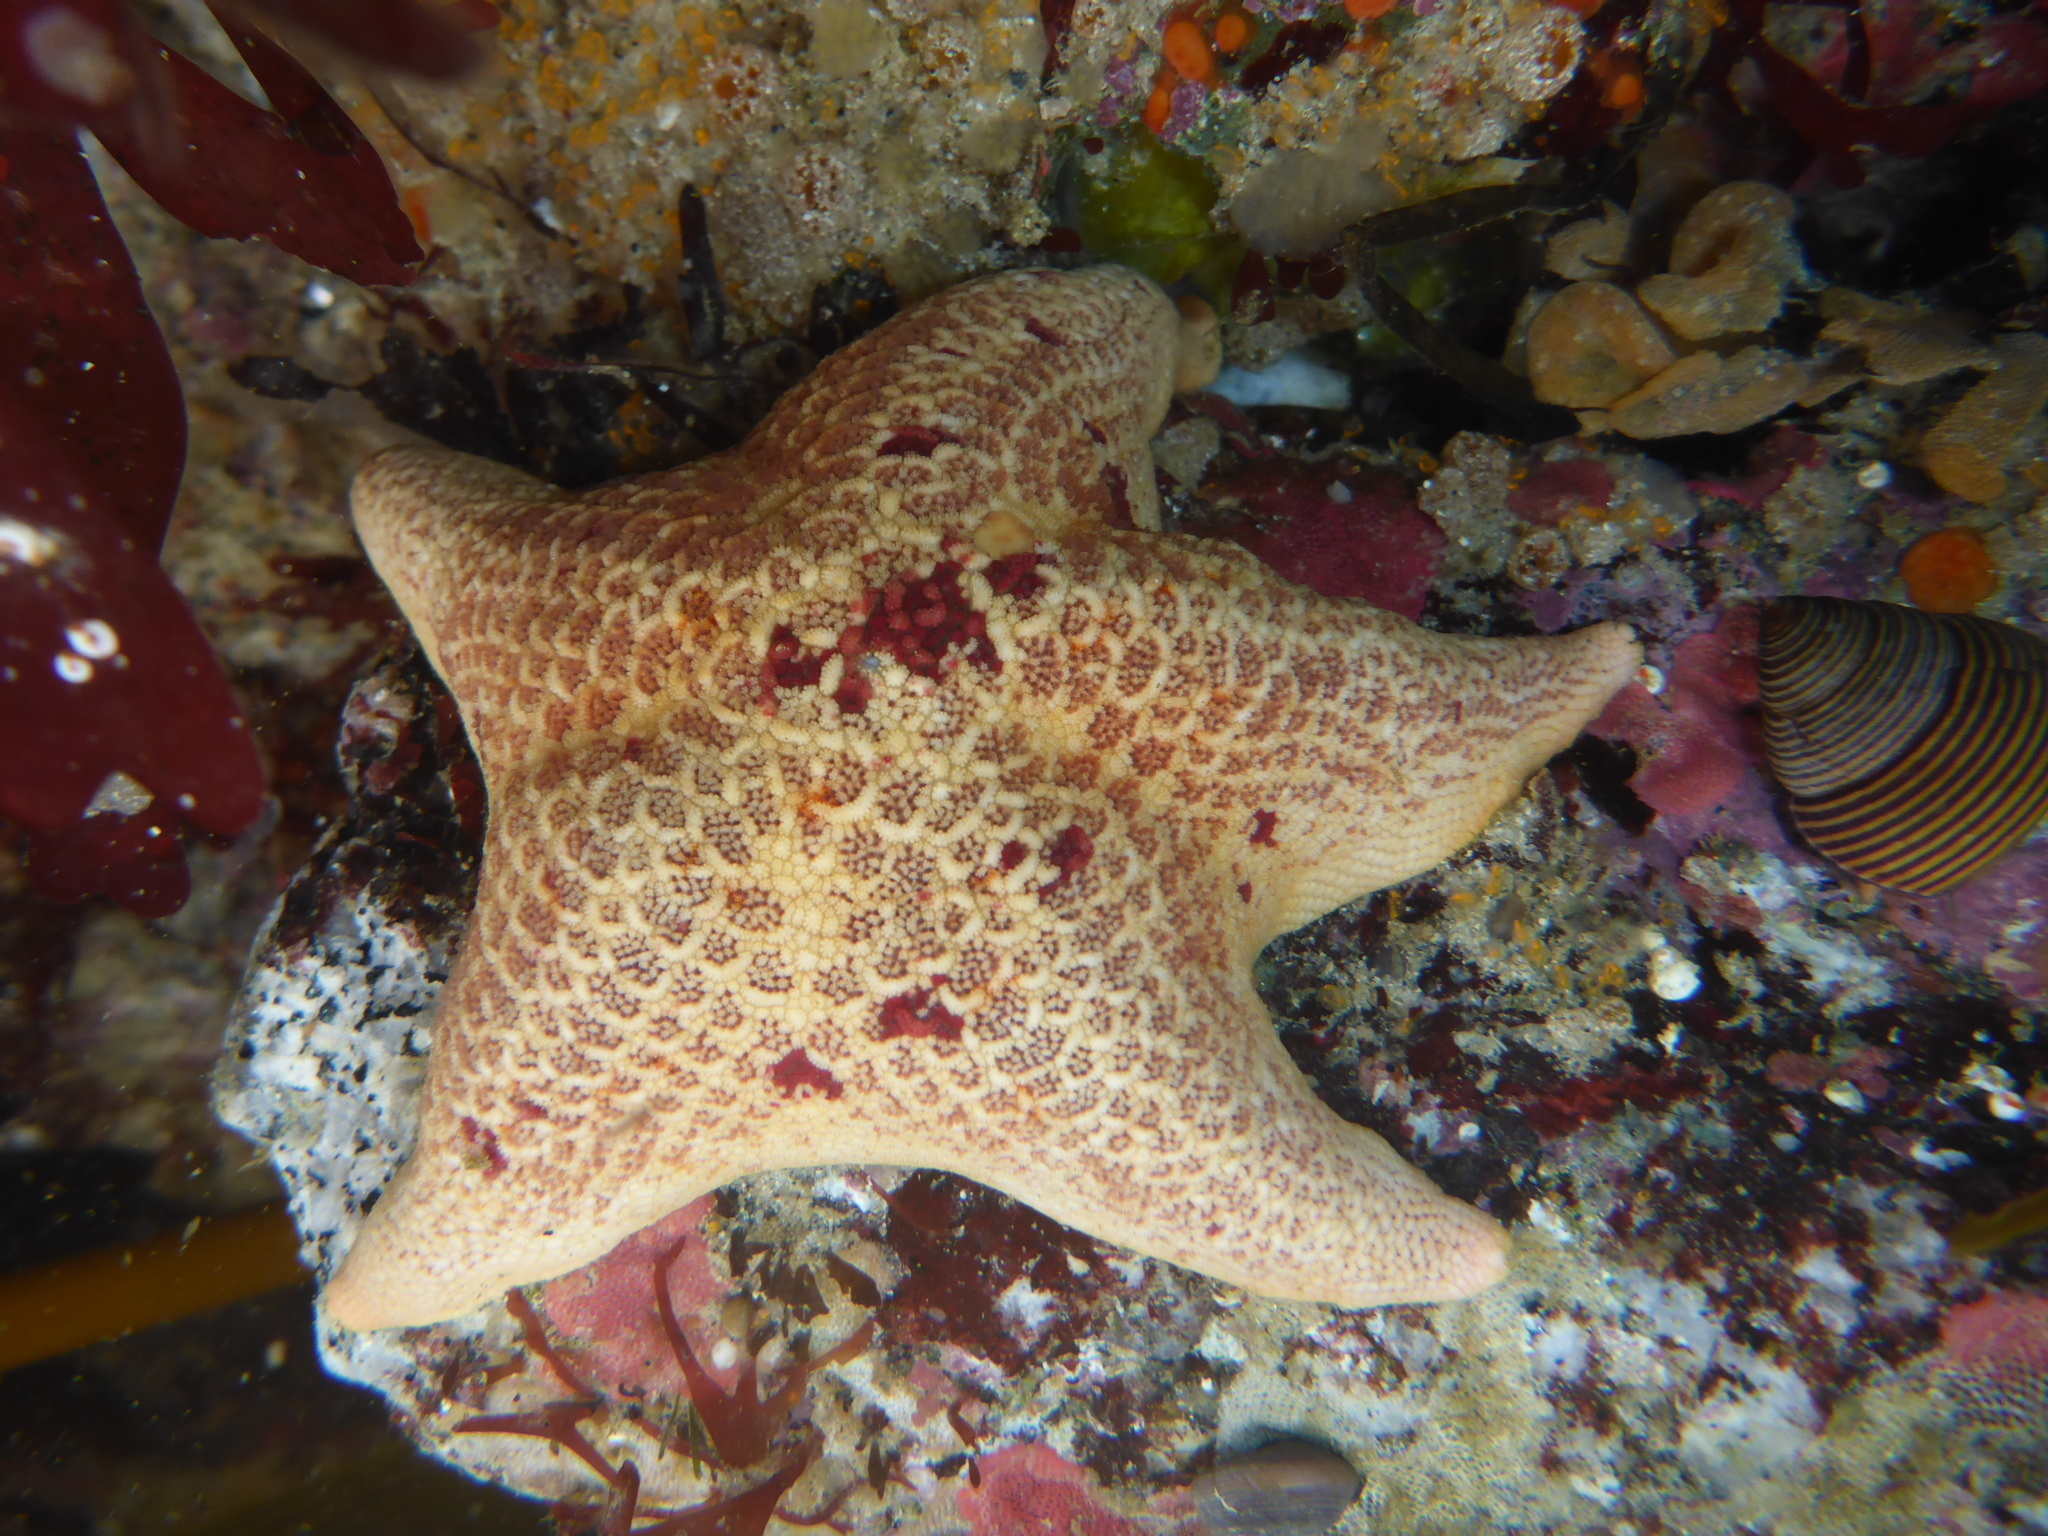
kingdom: Animalia
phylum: Echinodermata
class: Asteroidea
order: Valvatida
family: Asterinidae
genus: Patiria
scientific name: Patiria miniata
